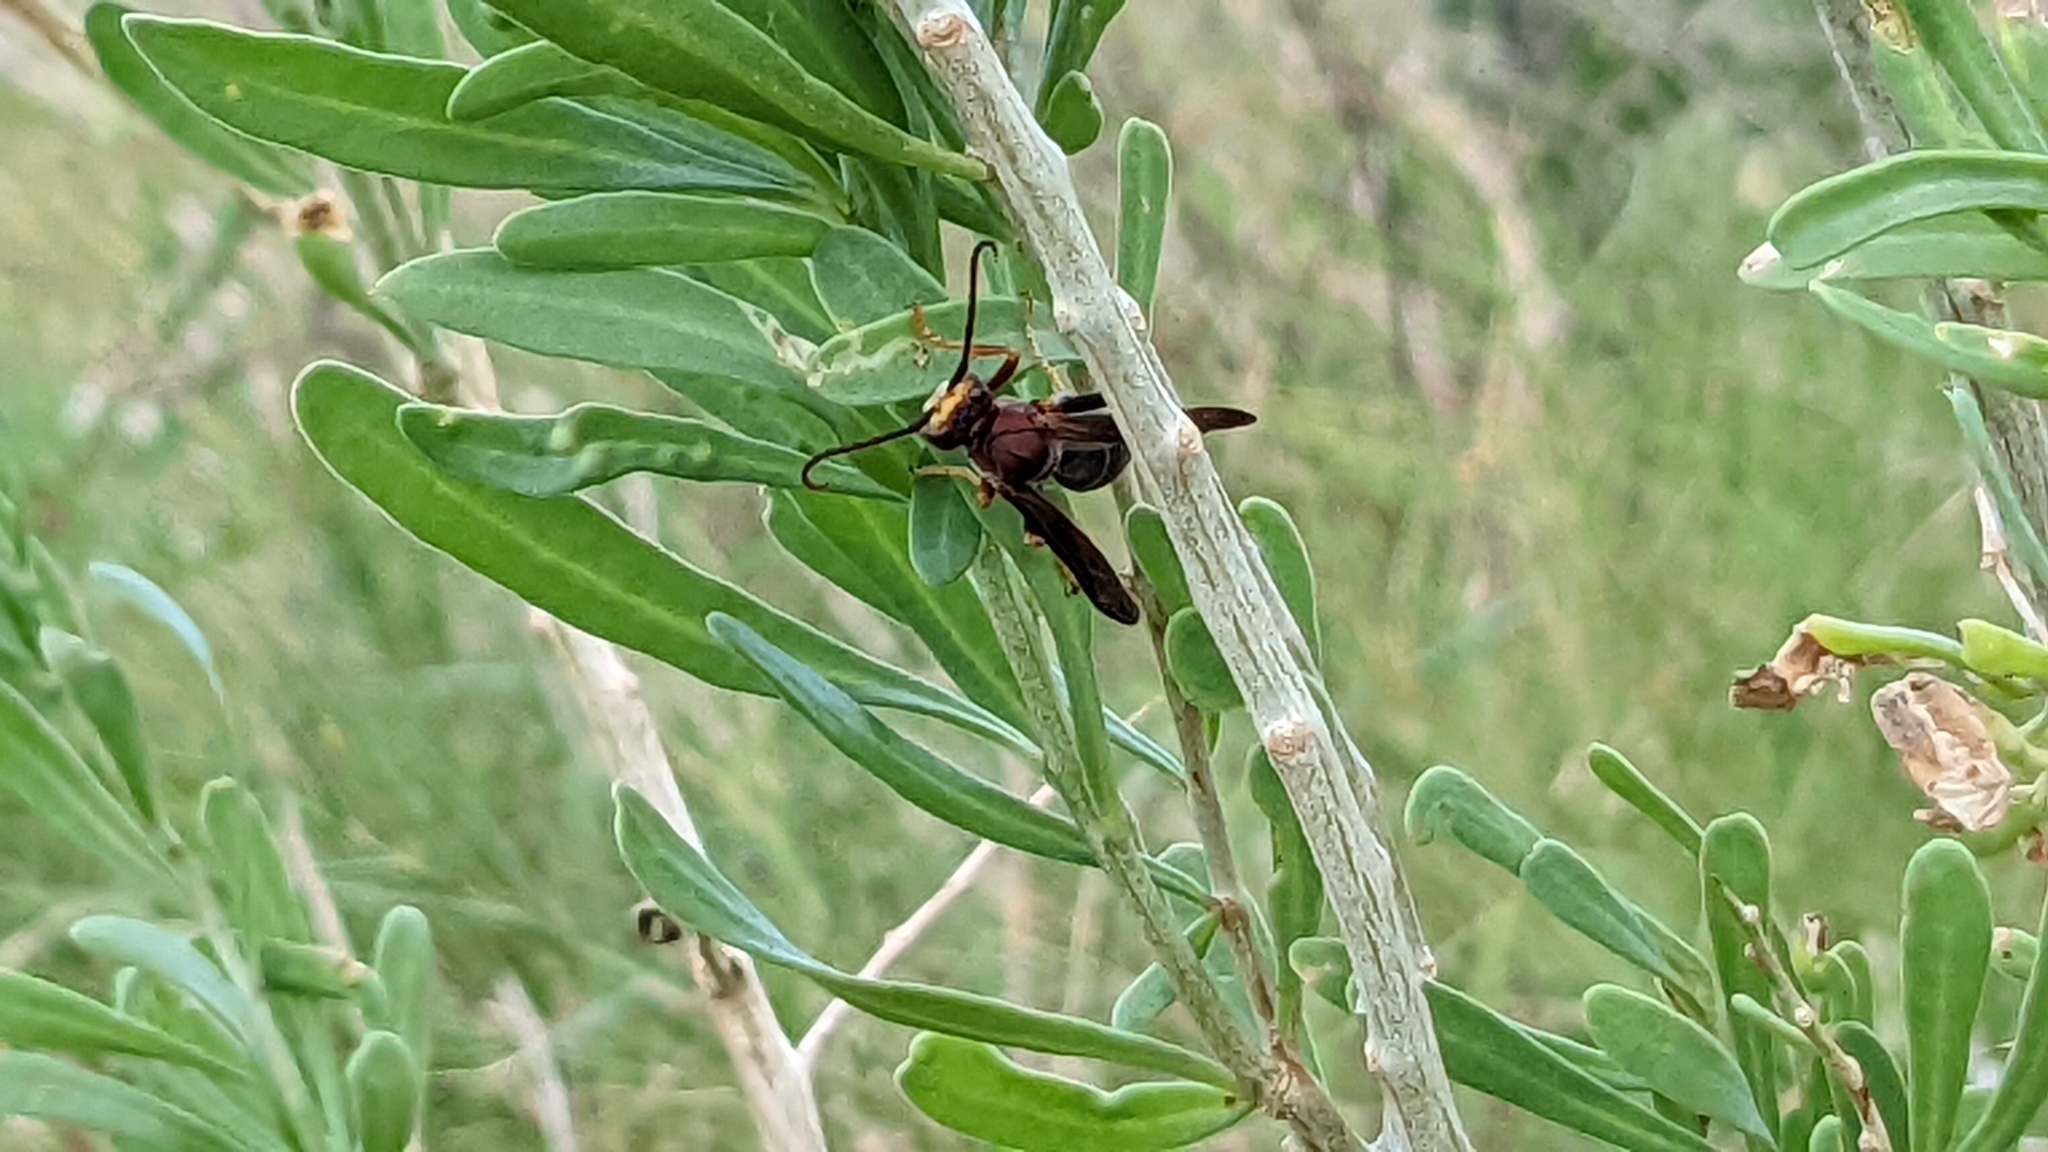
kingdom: Animalia
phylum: Arthropoda
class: Insecta
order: Hymenoptera
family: Eumenidae
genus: Polistes
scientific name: Polistes metricus
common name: Metric paper wasp
